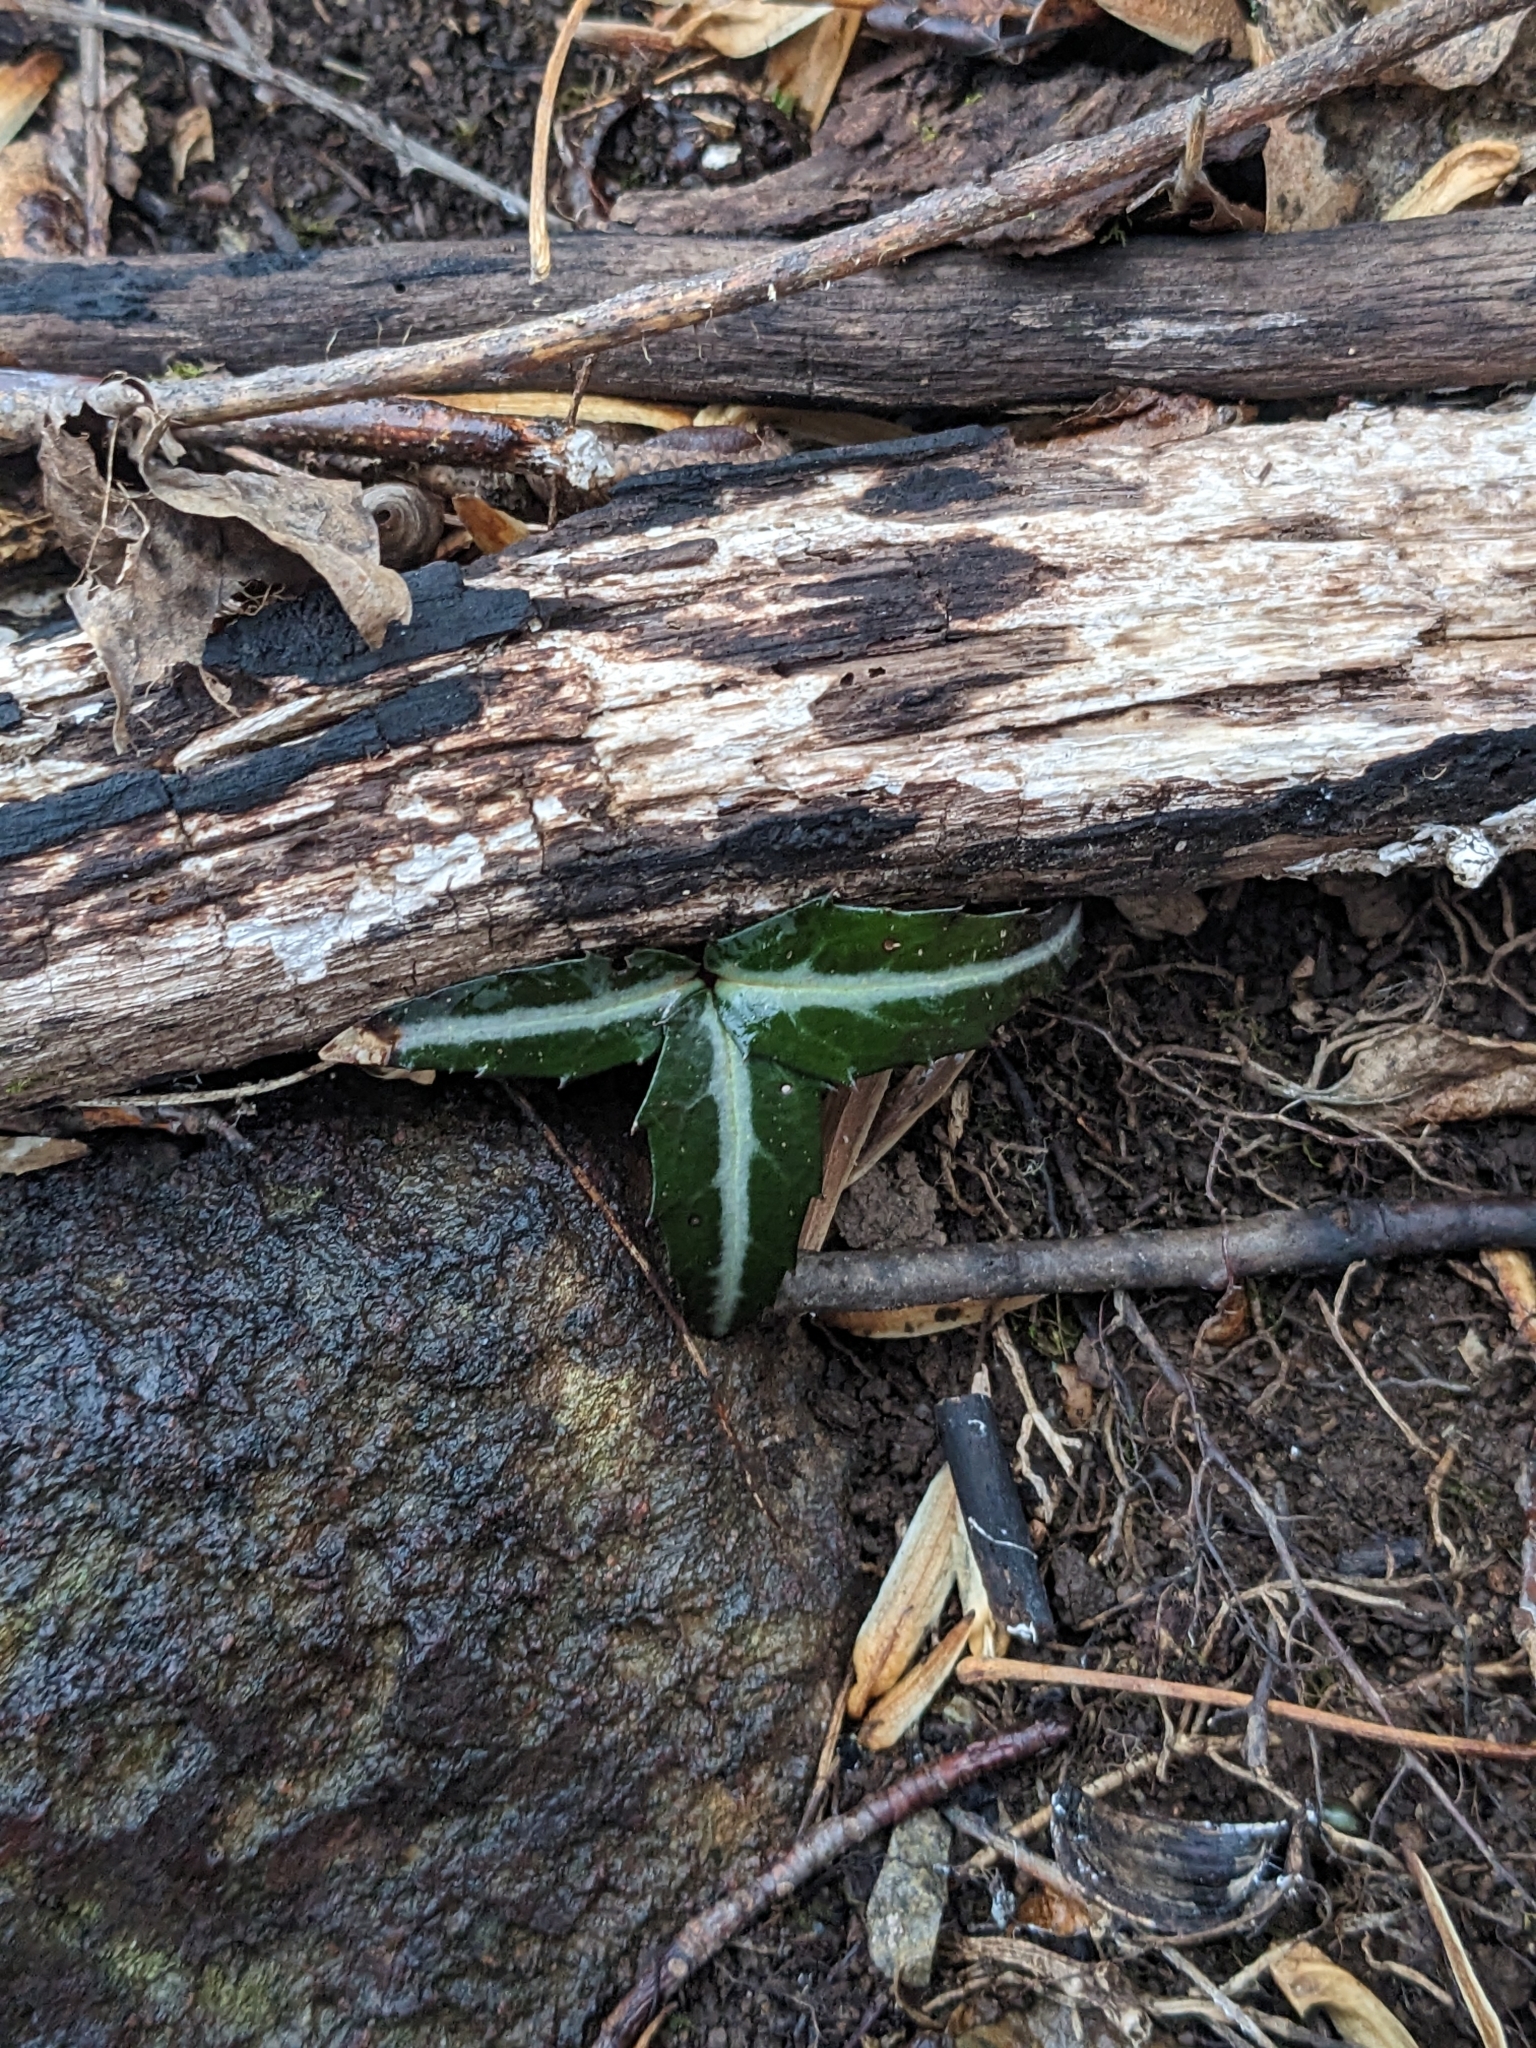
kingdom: Plantae
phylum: Tracheophyta
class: Magnoliopsida
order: Ericales
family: Ericaceae
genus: Chimaphila
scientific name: Chimaphila maculata
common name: Spotted pipsissewa
